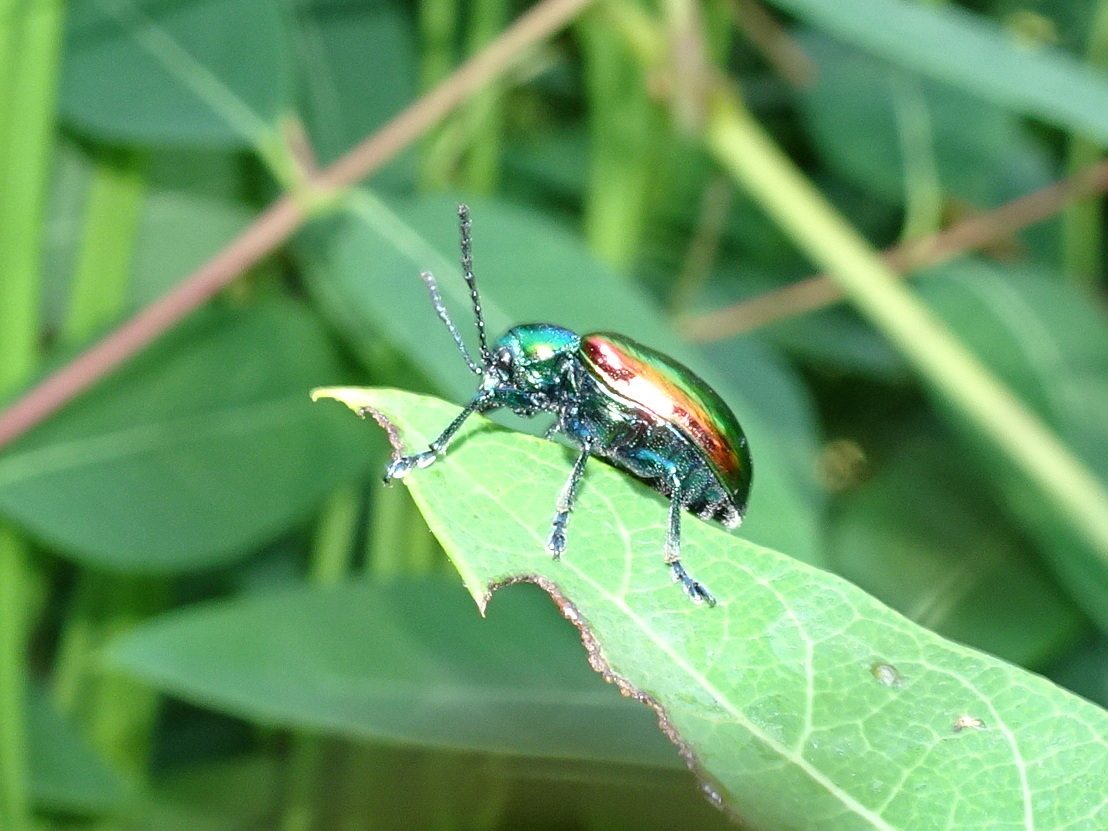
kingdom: Animalia
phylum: Arthropoda
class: Insecta
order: Coleoptera
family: Chrysomelidae
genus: Chrysochus
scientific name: Chrysochus auratus
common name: Dogbane leaf beetle
